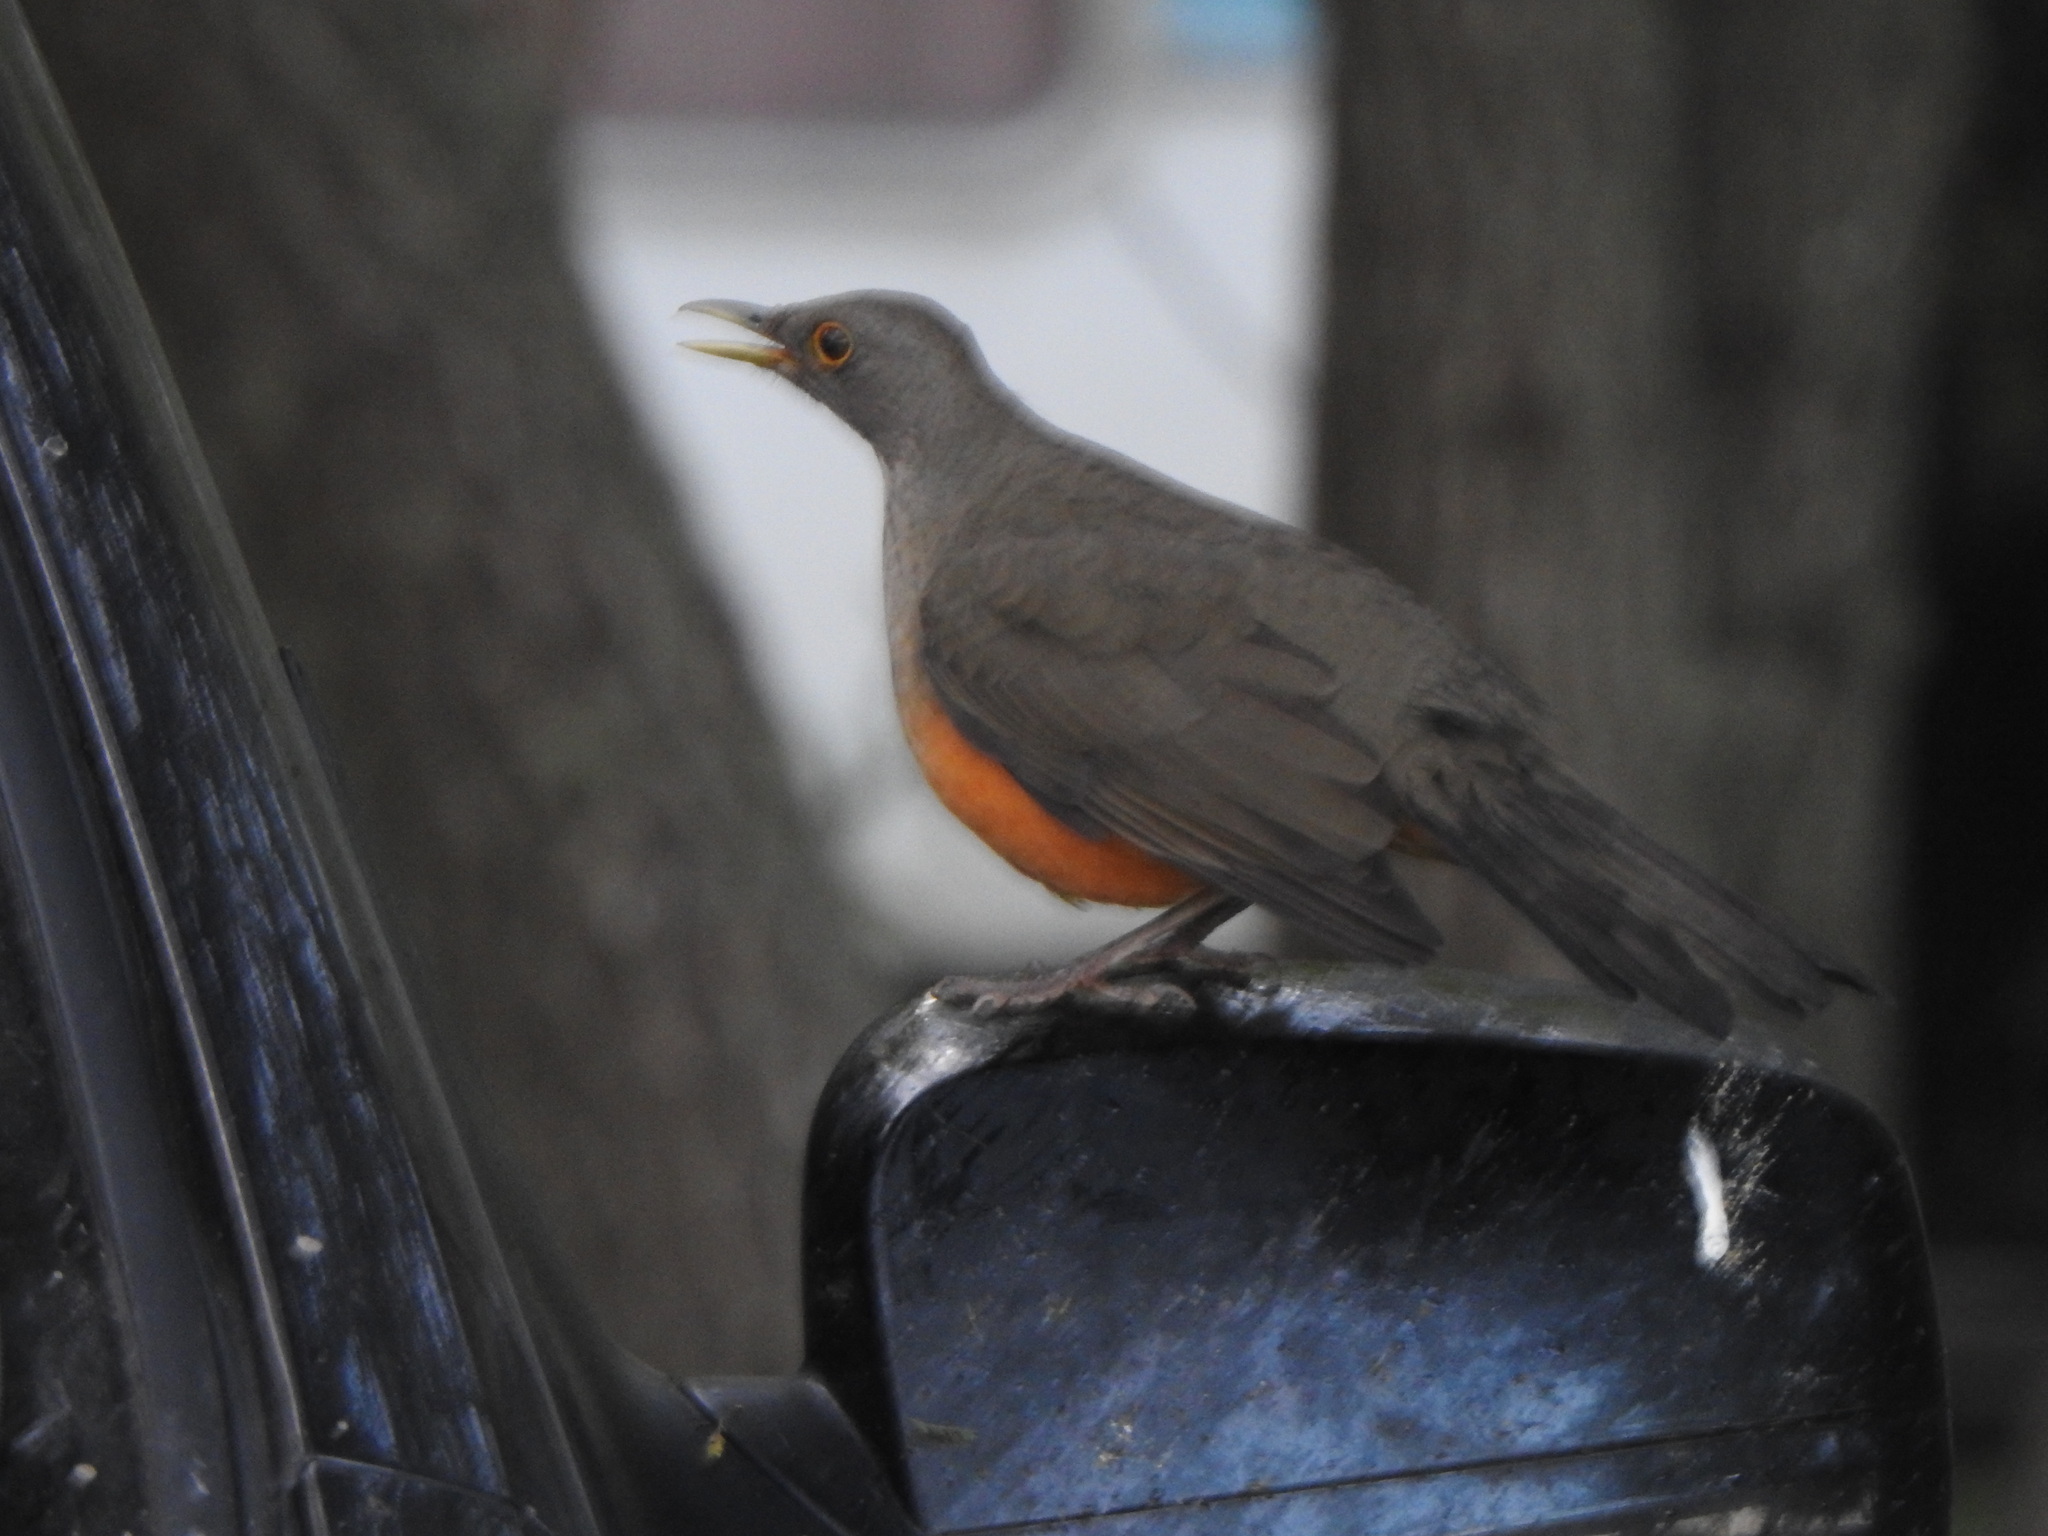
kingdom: Animalia
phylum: Chordata
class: Aves
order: Passeriformes
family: Turdidae
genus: Turdus
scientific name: Turdus rufiventris
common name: Rufous-bellied thrush
